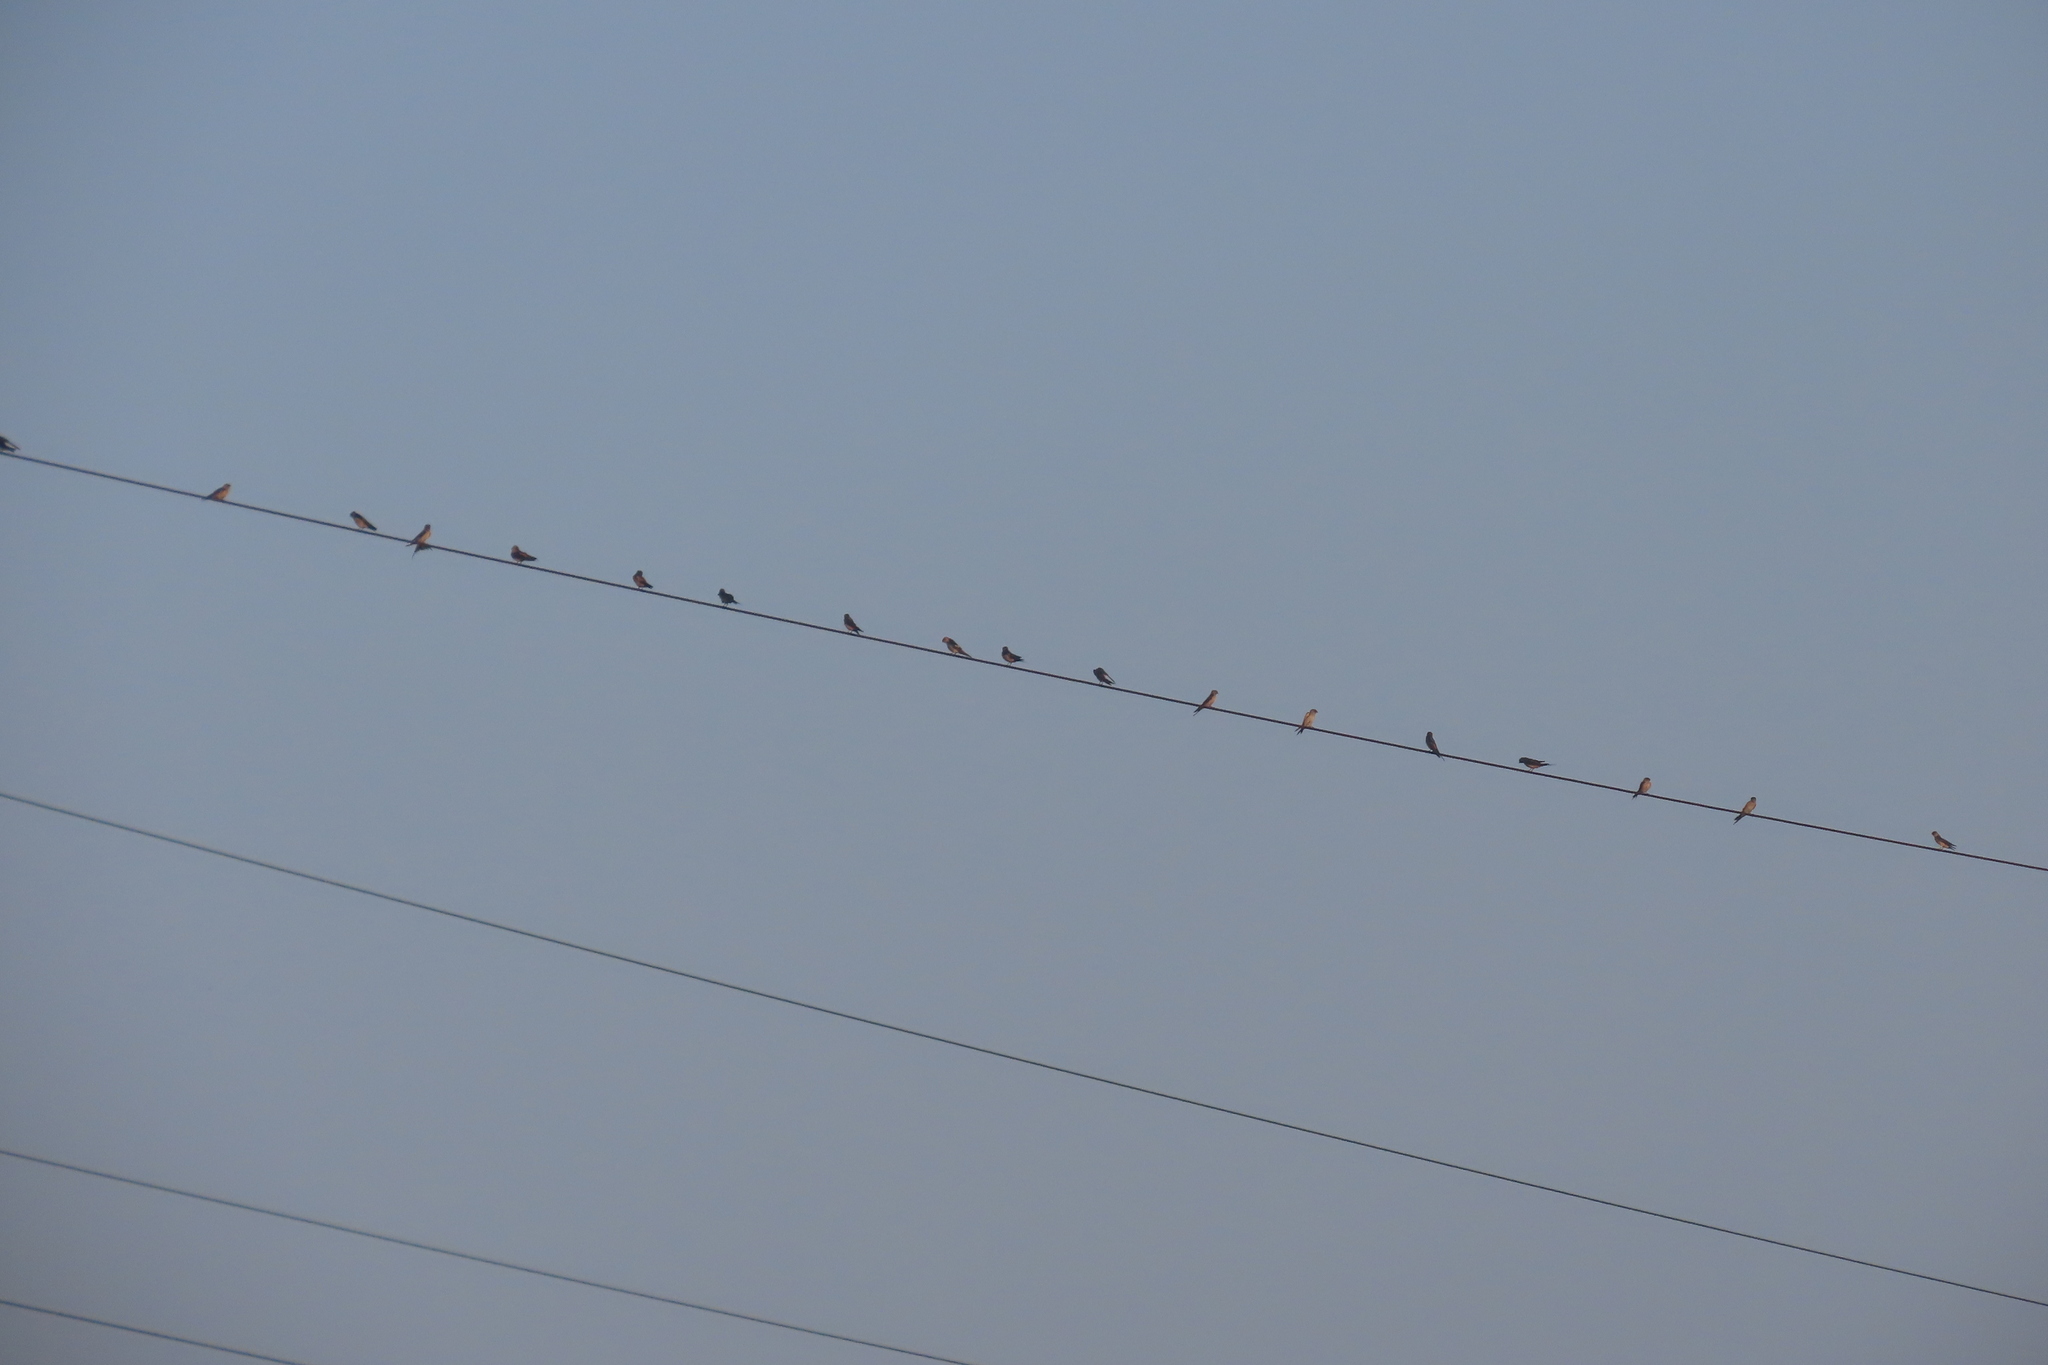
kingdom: Animalia
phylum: Chordata
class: Aves
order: Passeriformes
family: Hirundinidae
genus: Cecropis
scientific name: Cecropis daurica
